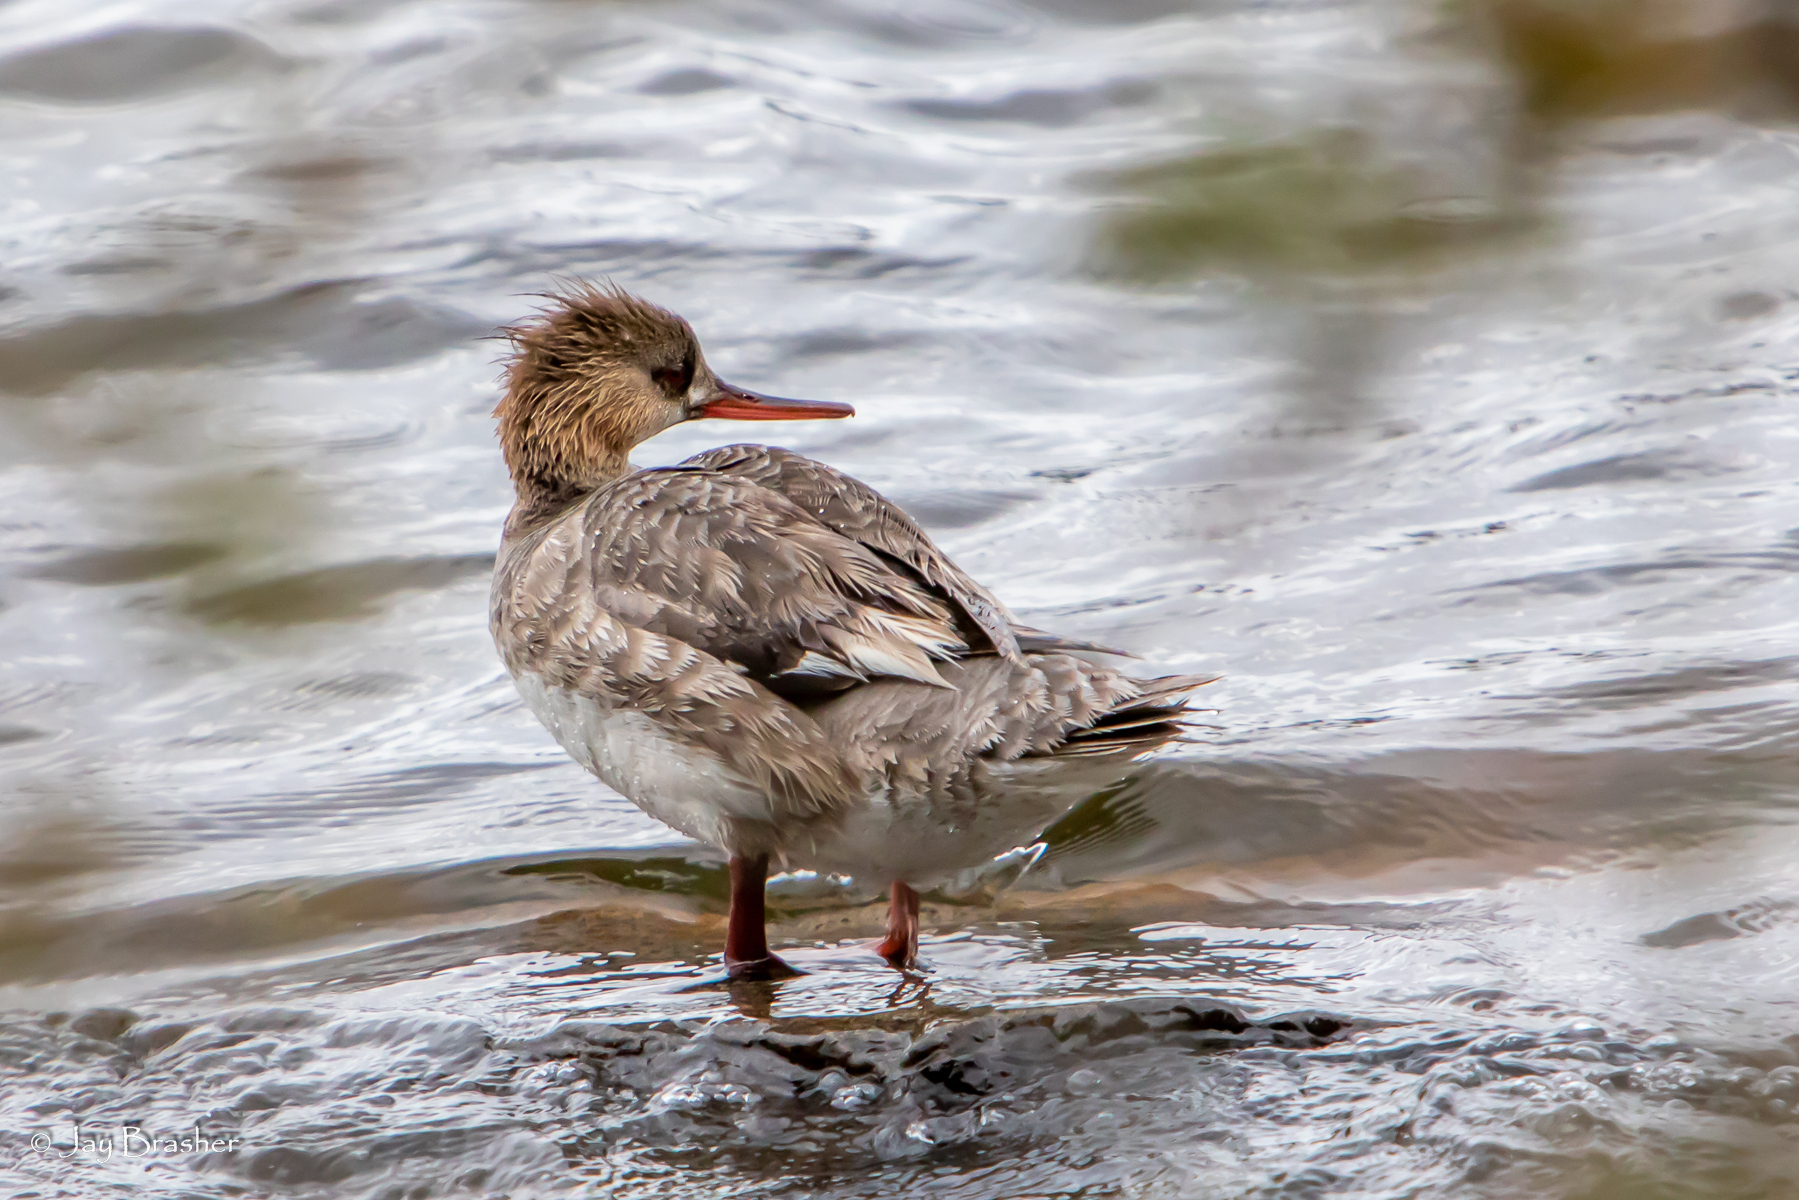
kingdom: Animalia
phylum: Chordata
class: Aves
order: Anseriformes
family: Anatidae
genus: Mergus
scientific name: Mergus serrator
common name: Red-breasted merganser
